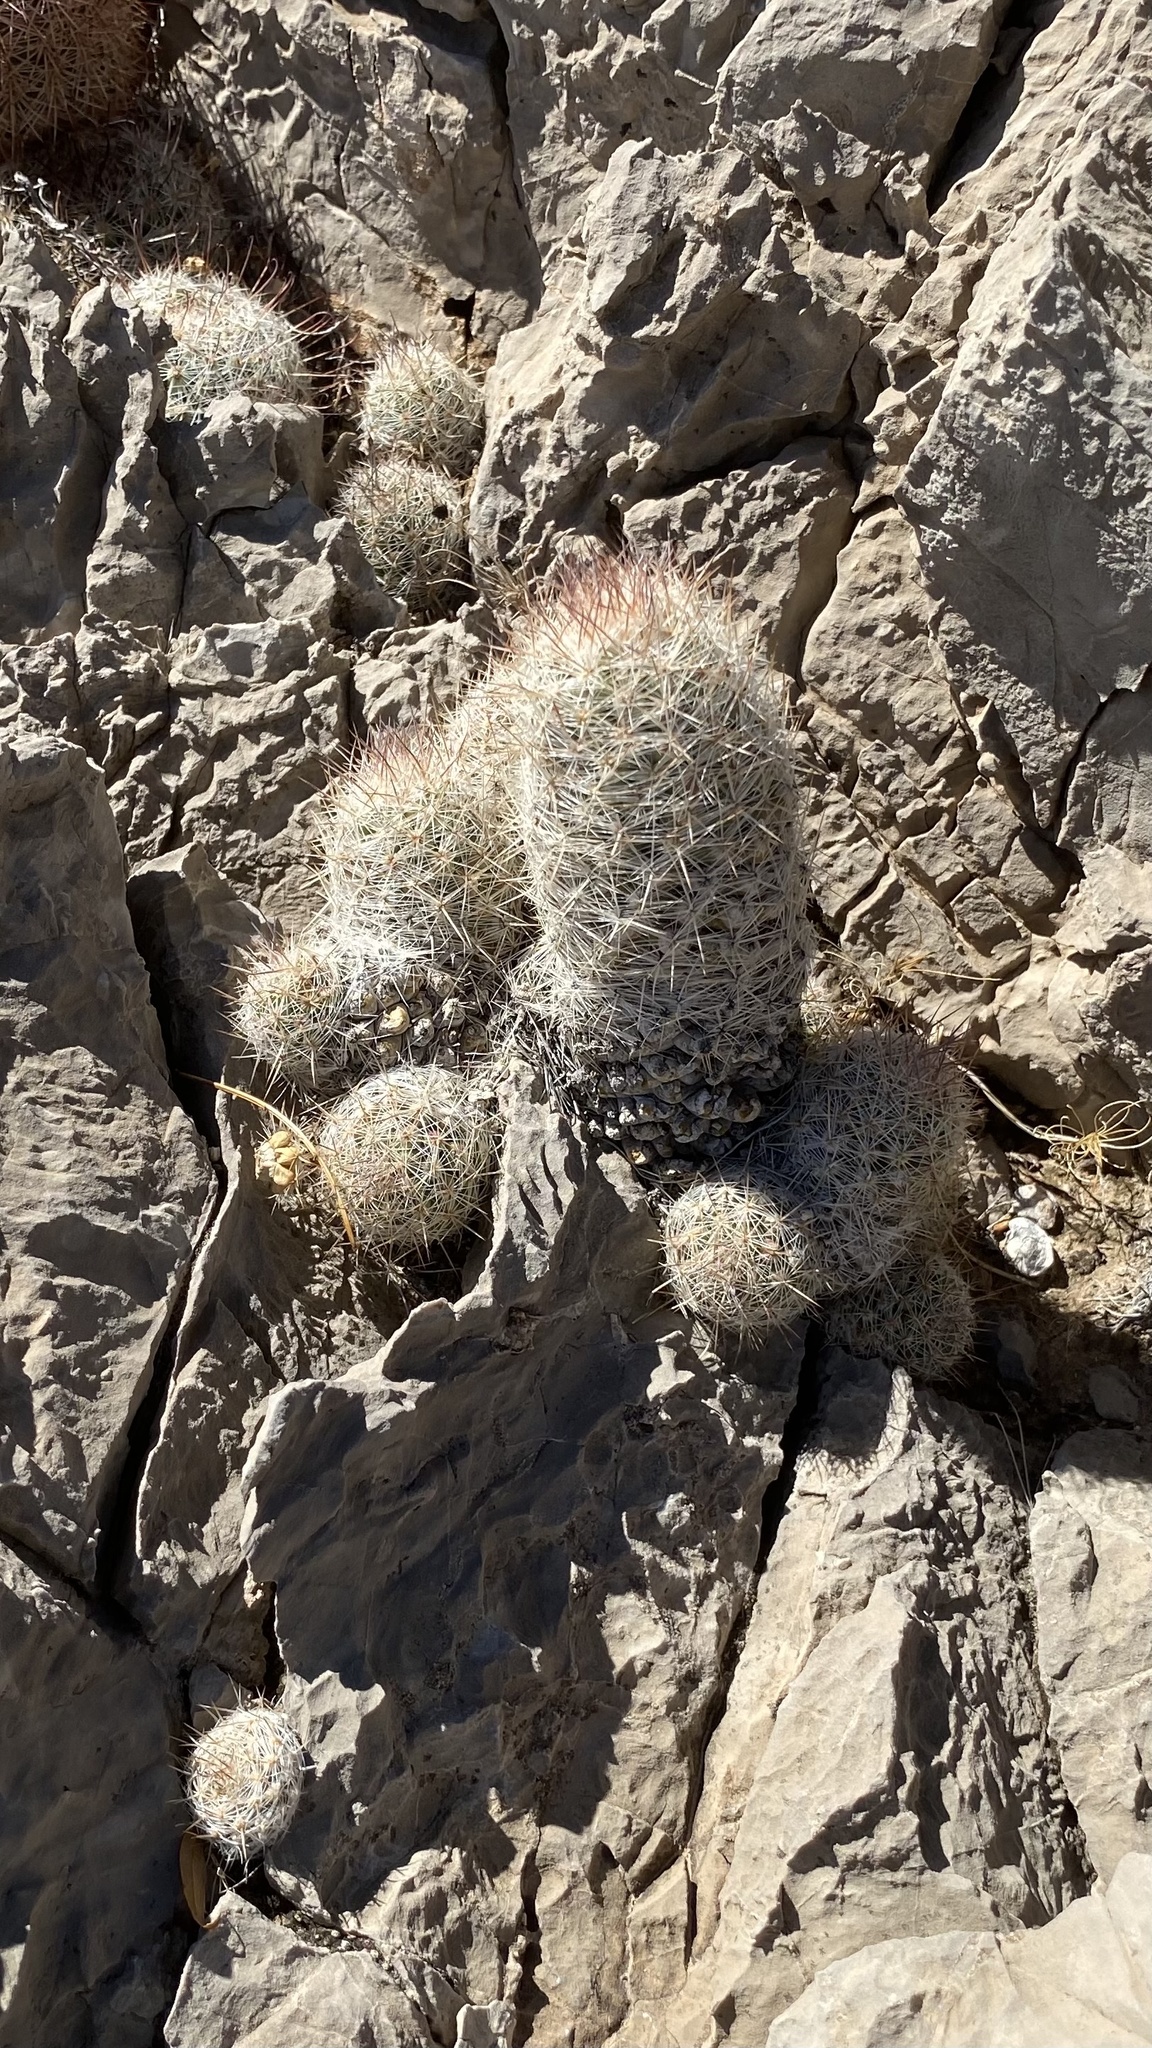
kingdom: Plantae
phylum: Tracheophyta
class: Magnoliopsida
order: Caryophyllales
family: Cactaceae
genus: Pelecyphora
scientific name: Pelecyphora tuberculosa
